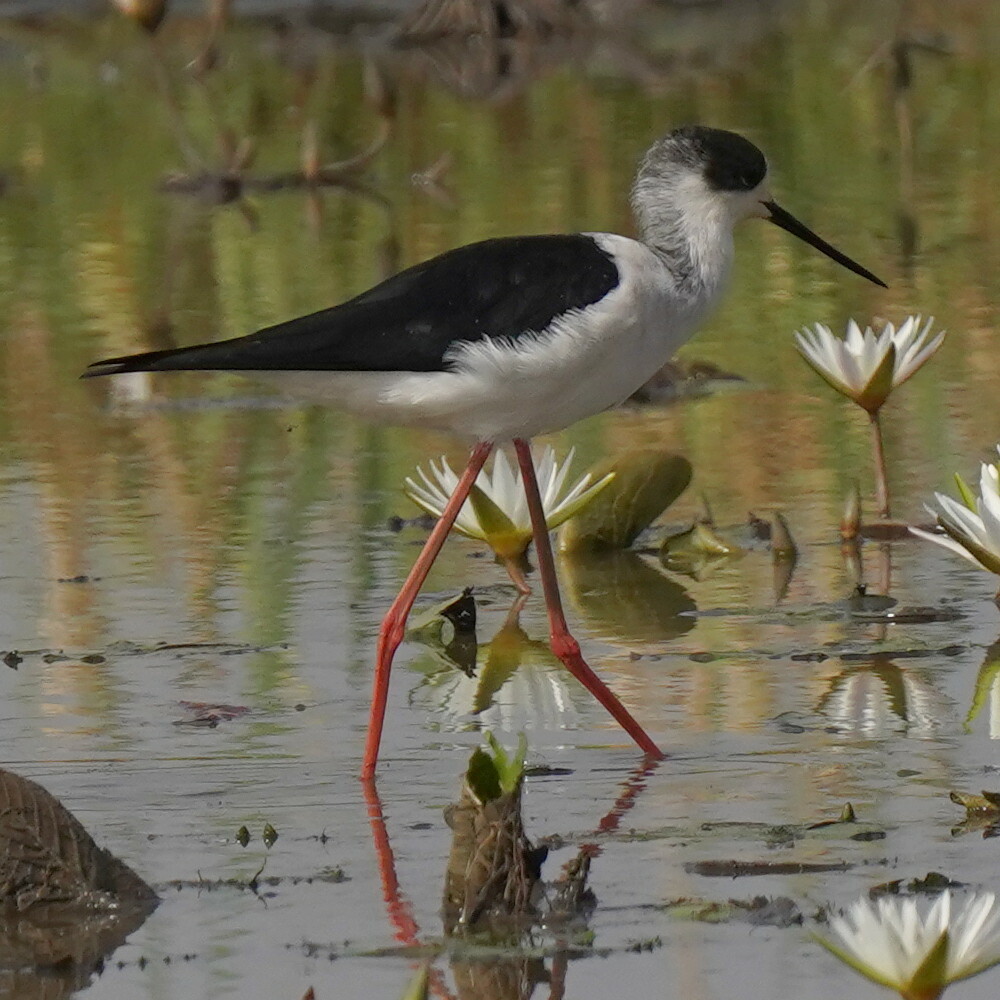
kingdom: Animalia
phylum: Chordata
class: Aves
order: Charadriiformes
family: Recurvirostridae
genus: Himantopus
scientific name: Himantopus himantopus
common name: Black-winged stilt
